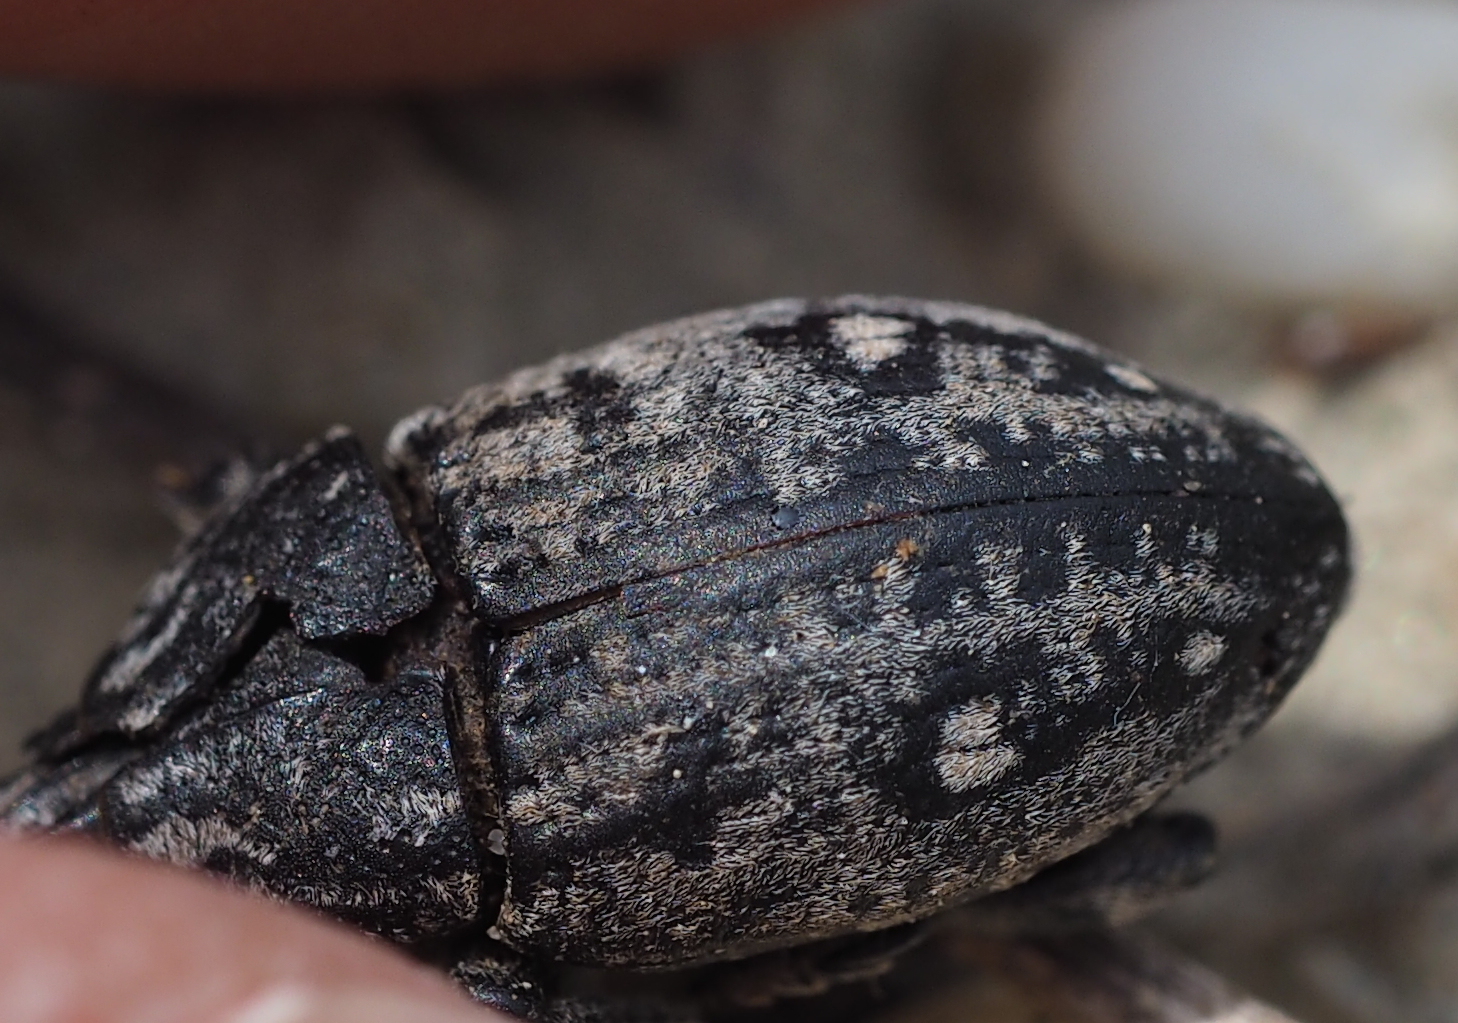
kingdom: Animalia
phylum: Arthropoda
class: Insecta
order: Coleoptera
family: Curculionidae
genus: Leucophyes
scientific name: Leucophyes pedestris
